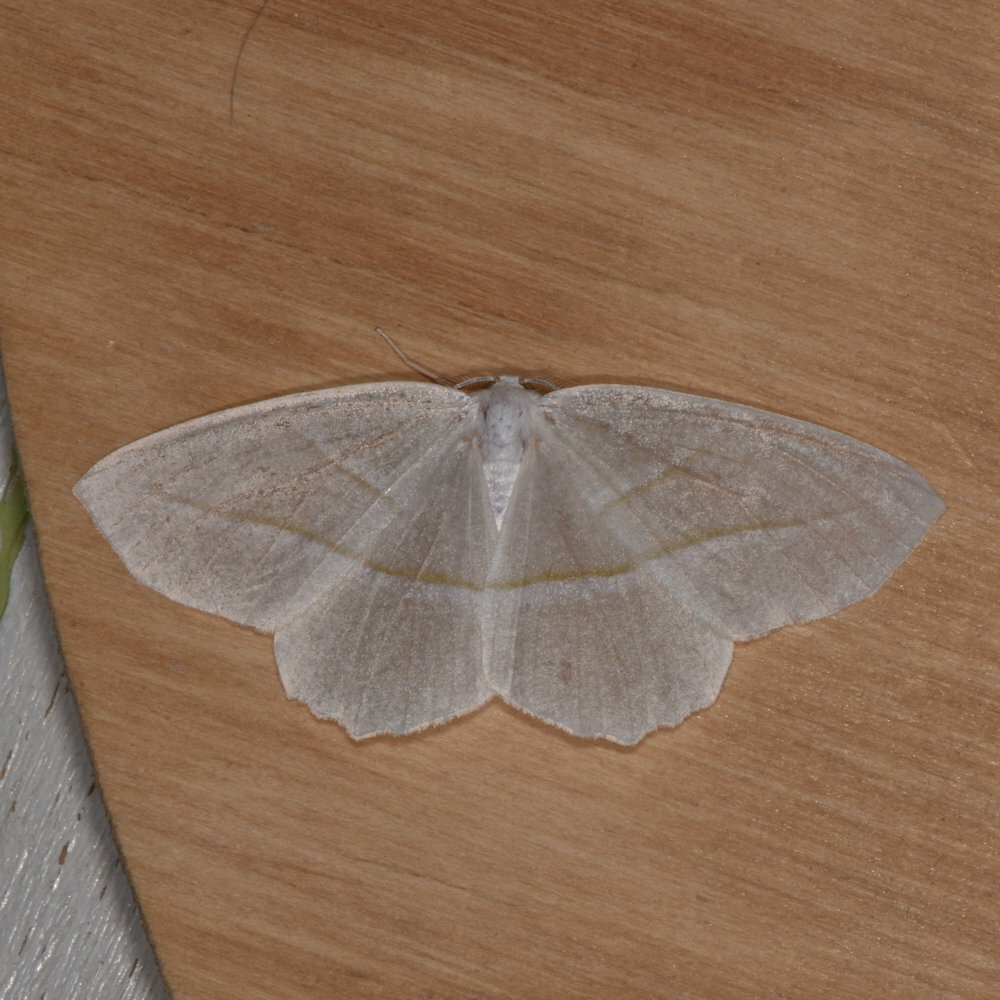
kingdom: Animalia
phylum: Arthropoda
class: Insecta
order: Lepidoptera
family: Geometridae
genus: Campaea
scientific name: Campaea perlata
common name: Fringed looper
